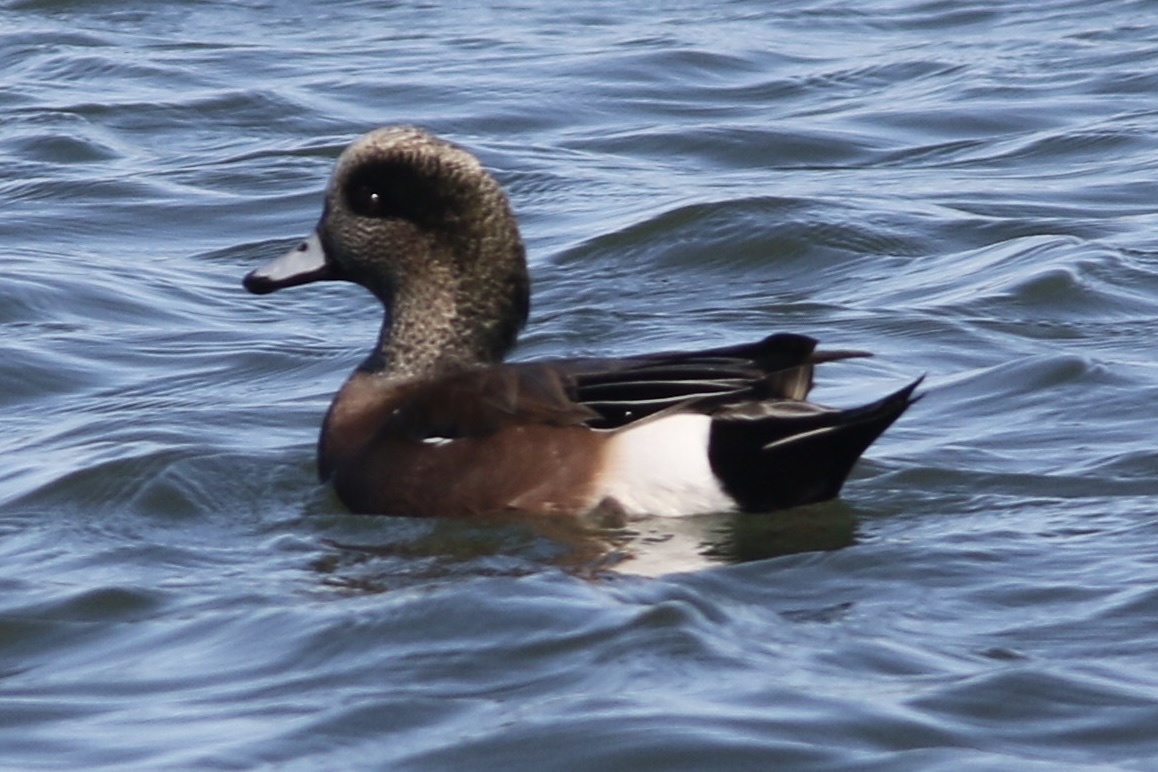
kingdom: Animalia
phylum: Chordata
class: Aves
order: Anseriformes
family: Anatidae
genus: Mareca
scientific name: Mareca americana
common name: American wigeon
